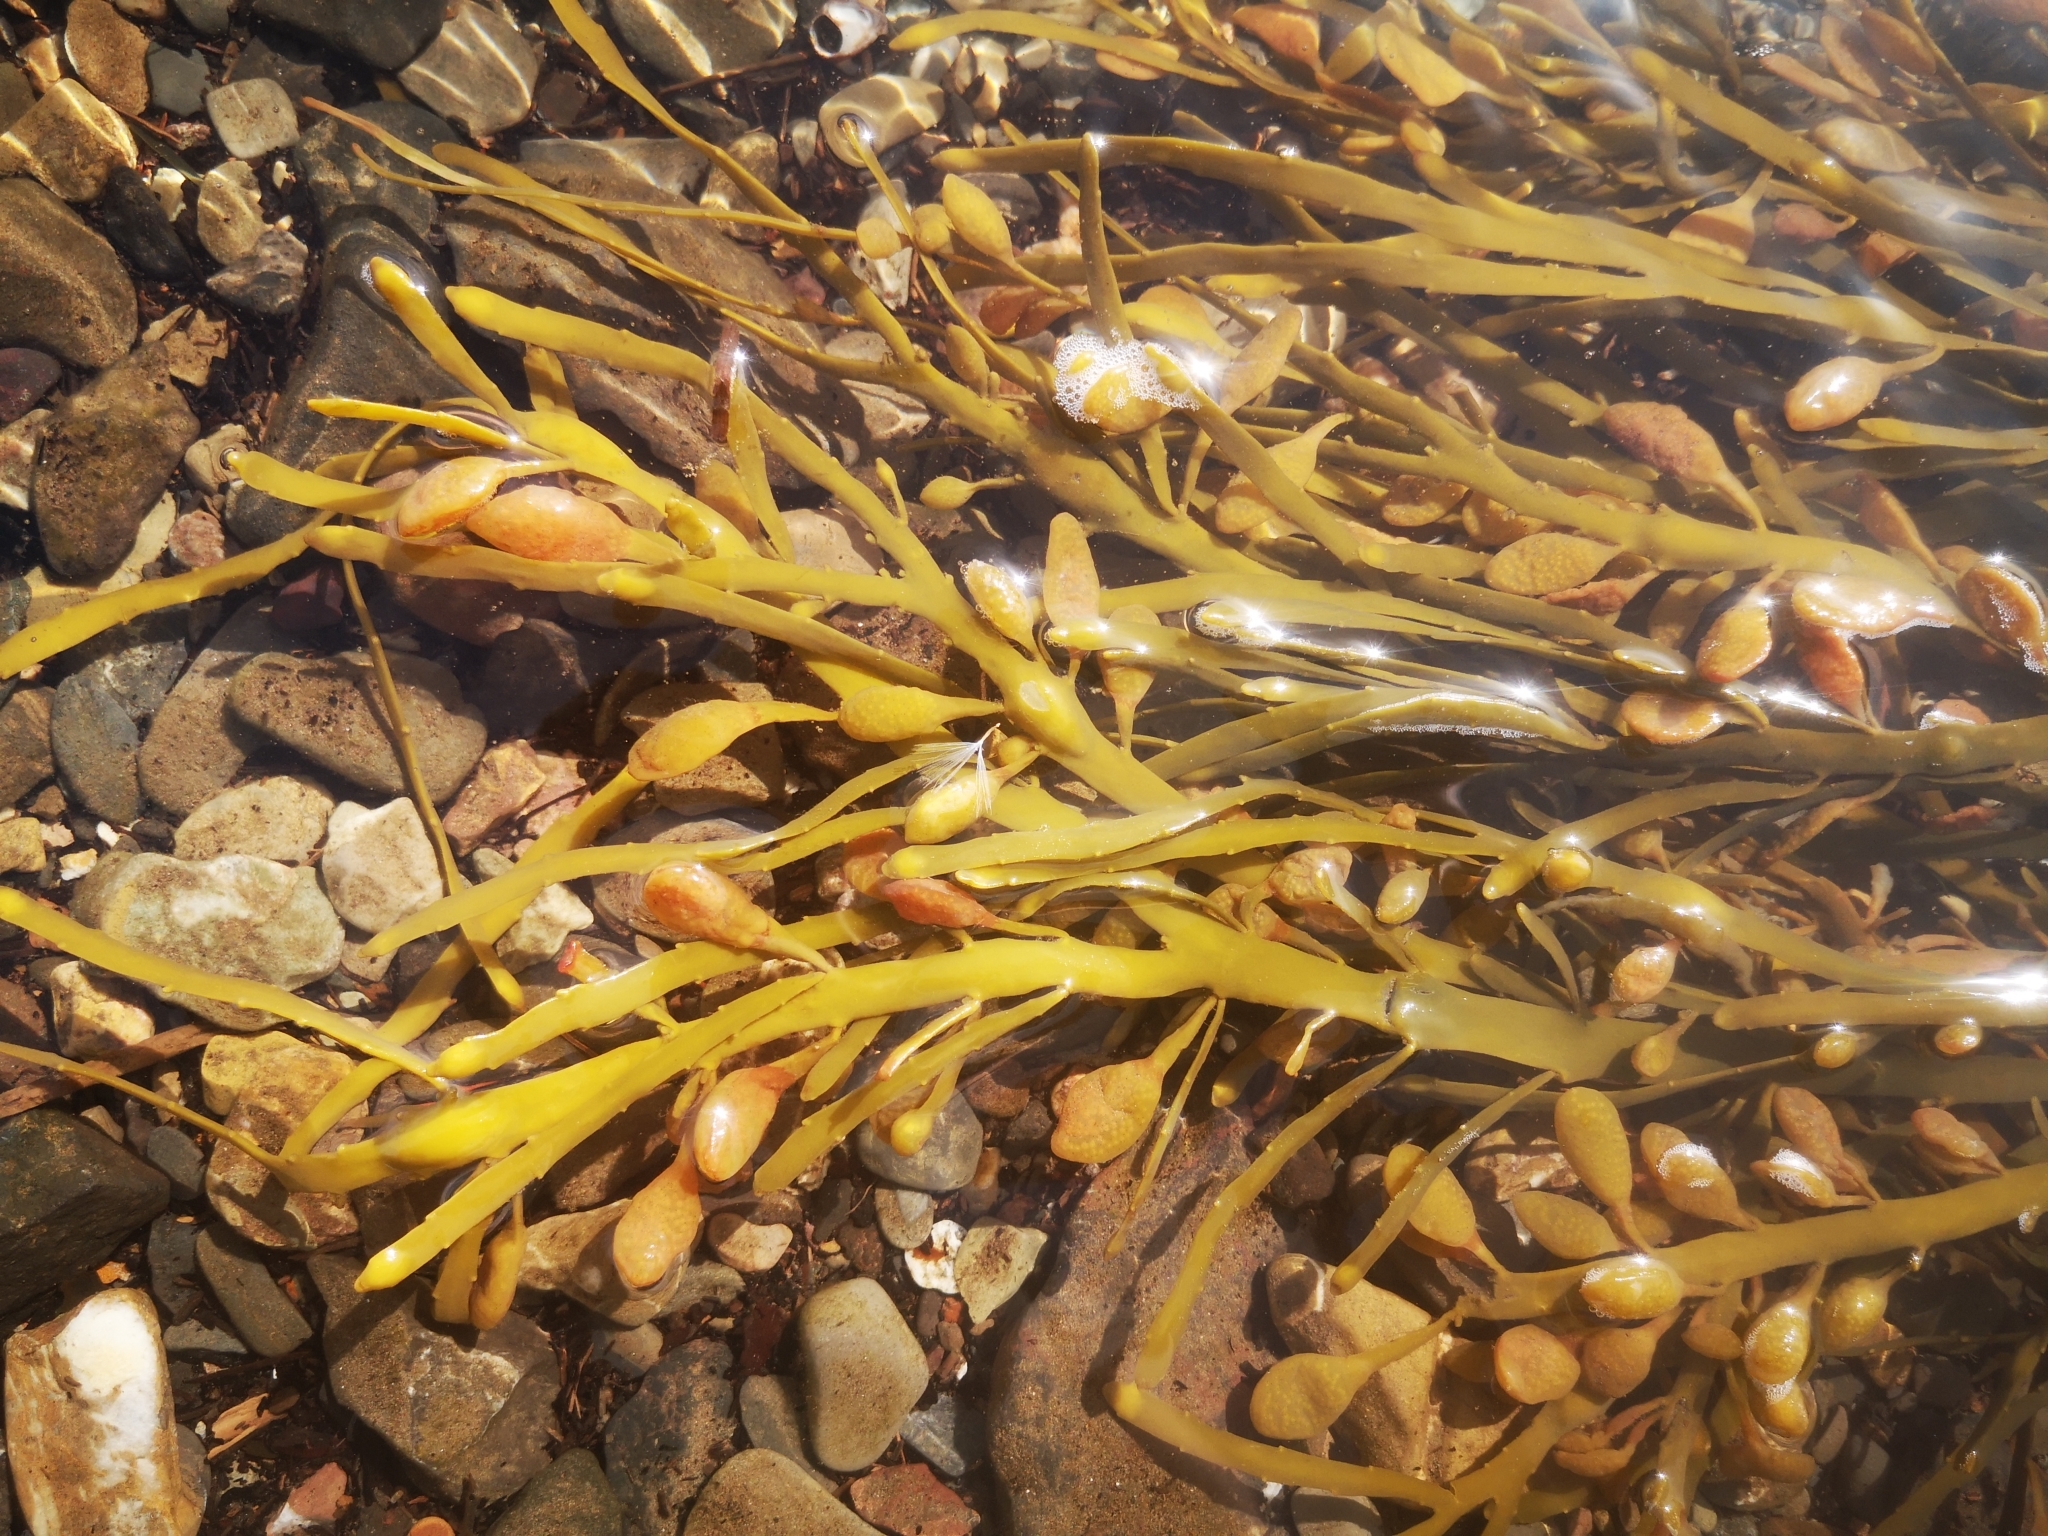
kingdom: Chromista
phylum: Ochrophyta
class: Phaeophyceae
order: Fucales
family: Fucaceae
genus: Ascophyllum
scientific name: Ascophyllum nodosum
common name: Knotted wrack
